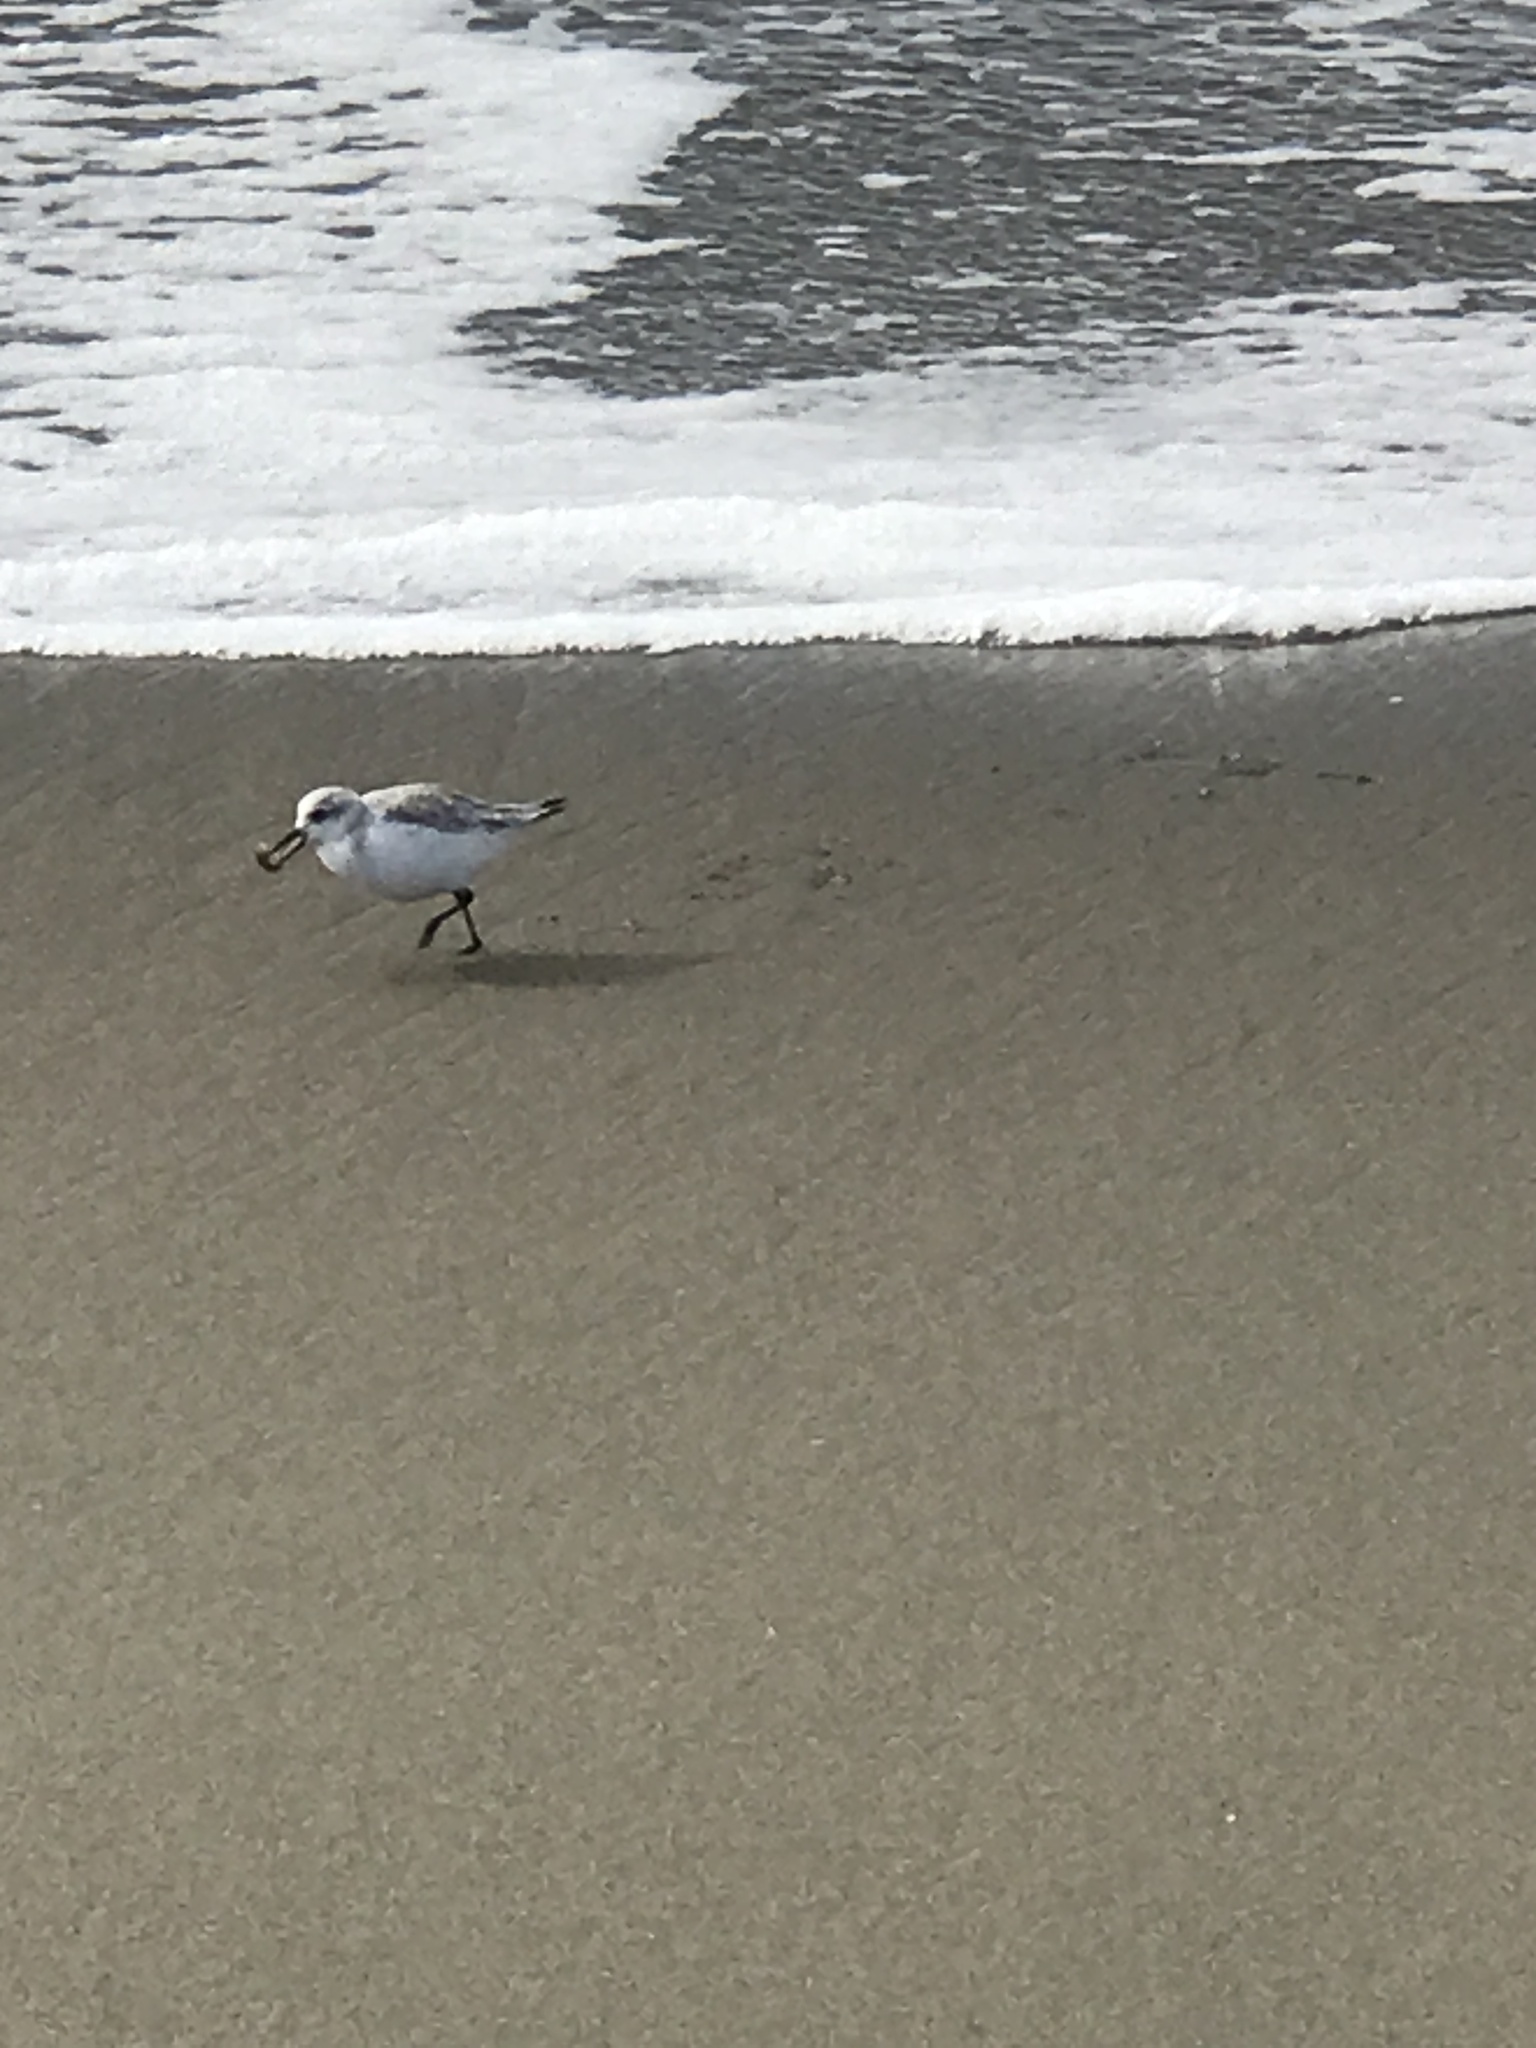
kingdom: Animalia
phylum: Chordata
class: Aves
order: Charadriiformes
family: Scolopacidae
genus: Calidris
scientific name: Calidris alba
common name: Sanderling
